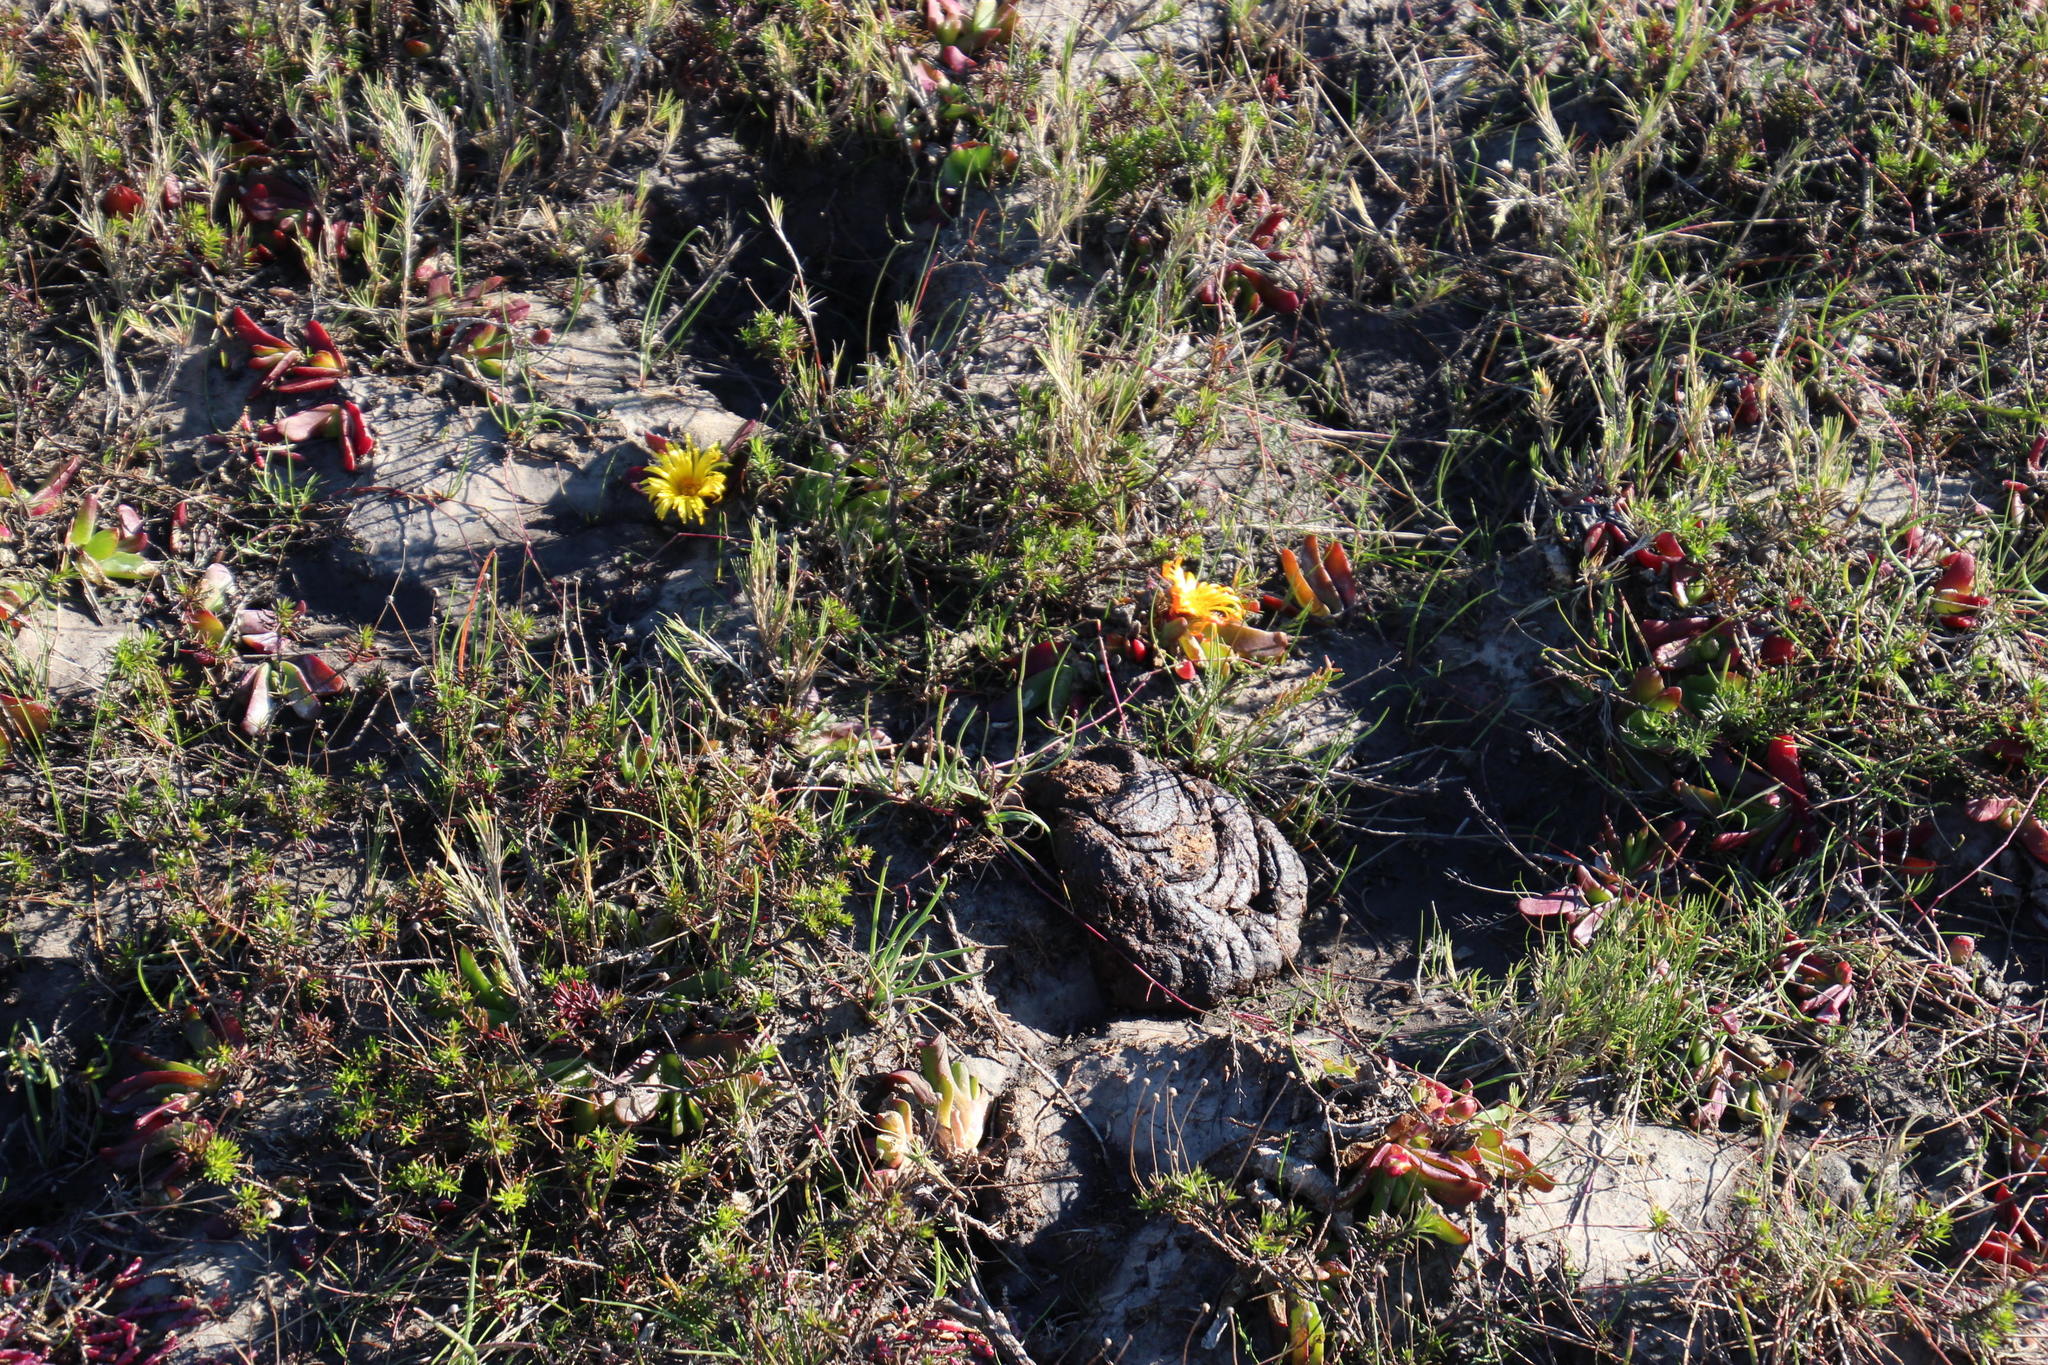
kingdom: Plantae
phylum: Tracheophyta
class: Magnoliopsida
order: Caryophyllales
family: Aizoaceae
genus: Glottiphyllum
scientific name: Glottiphyllum longum
